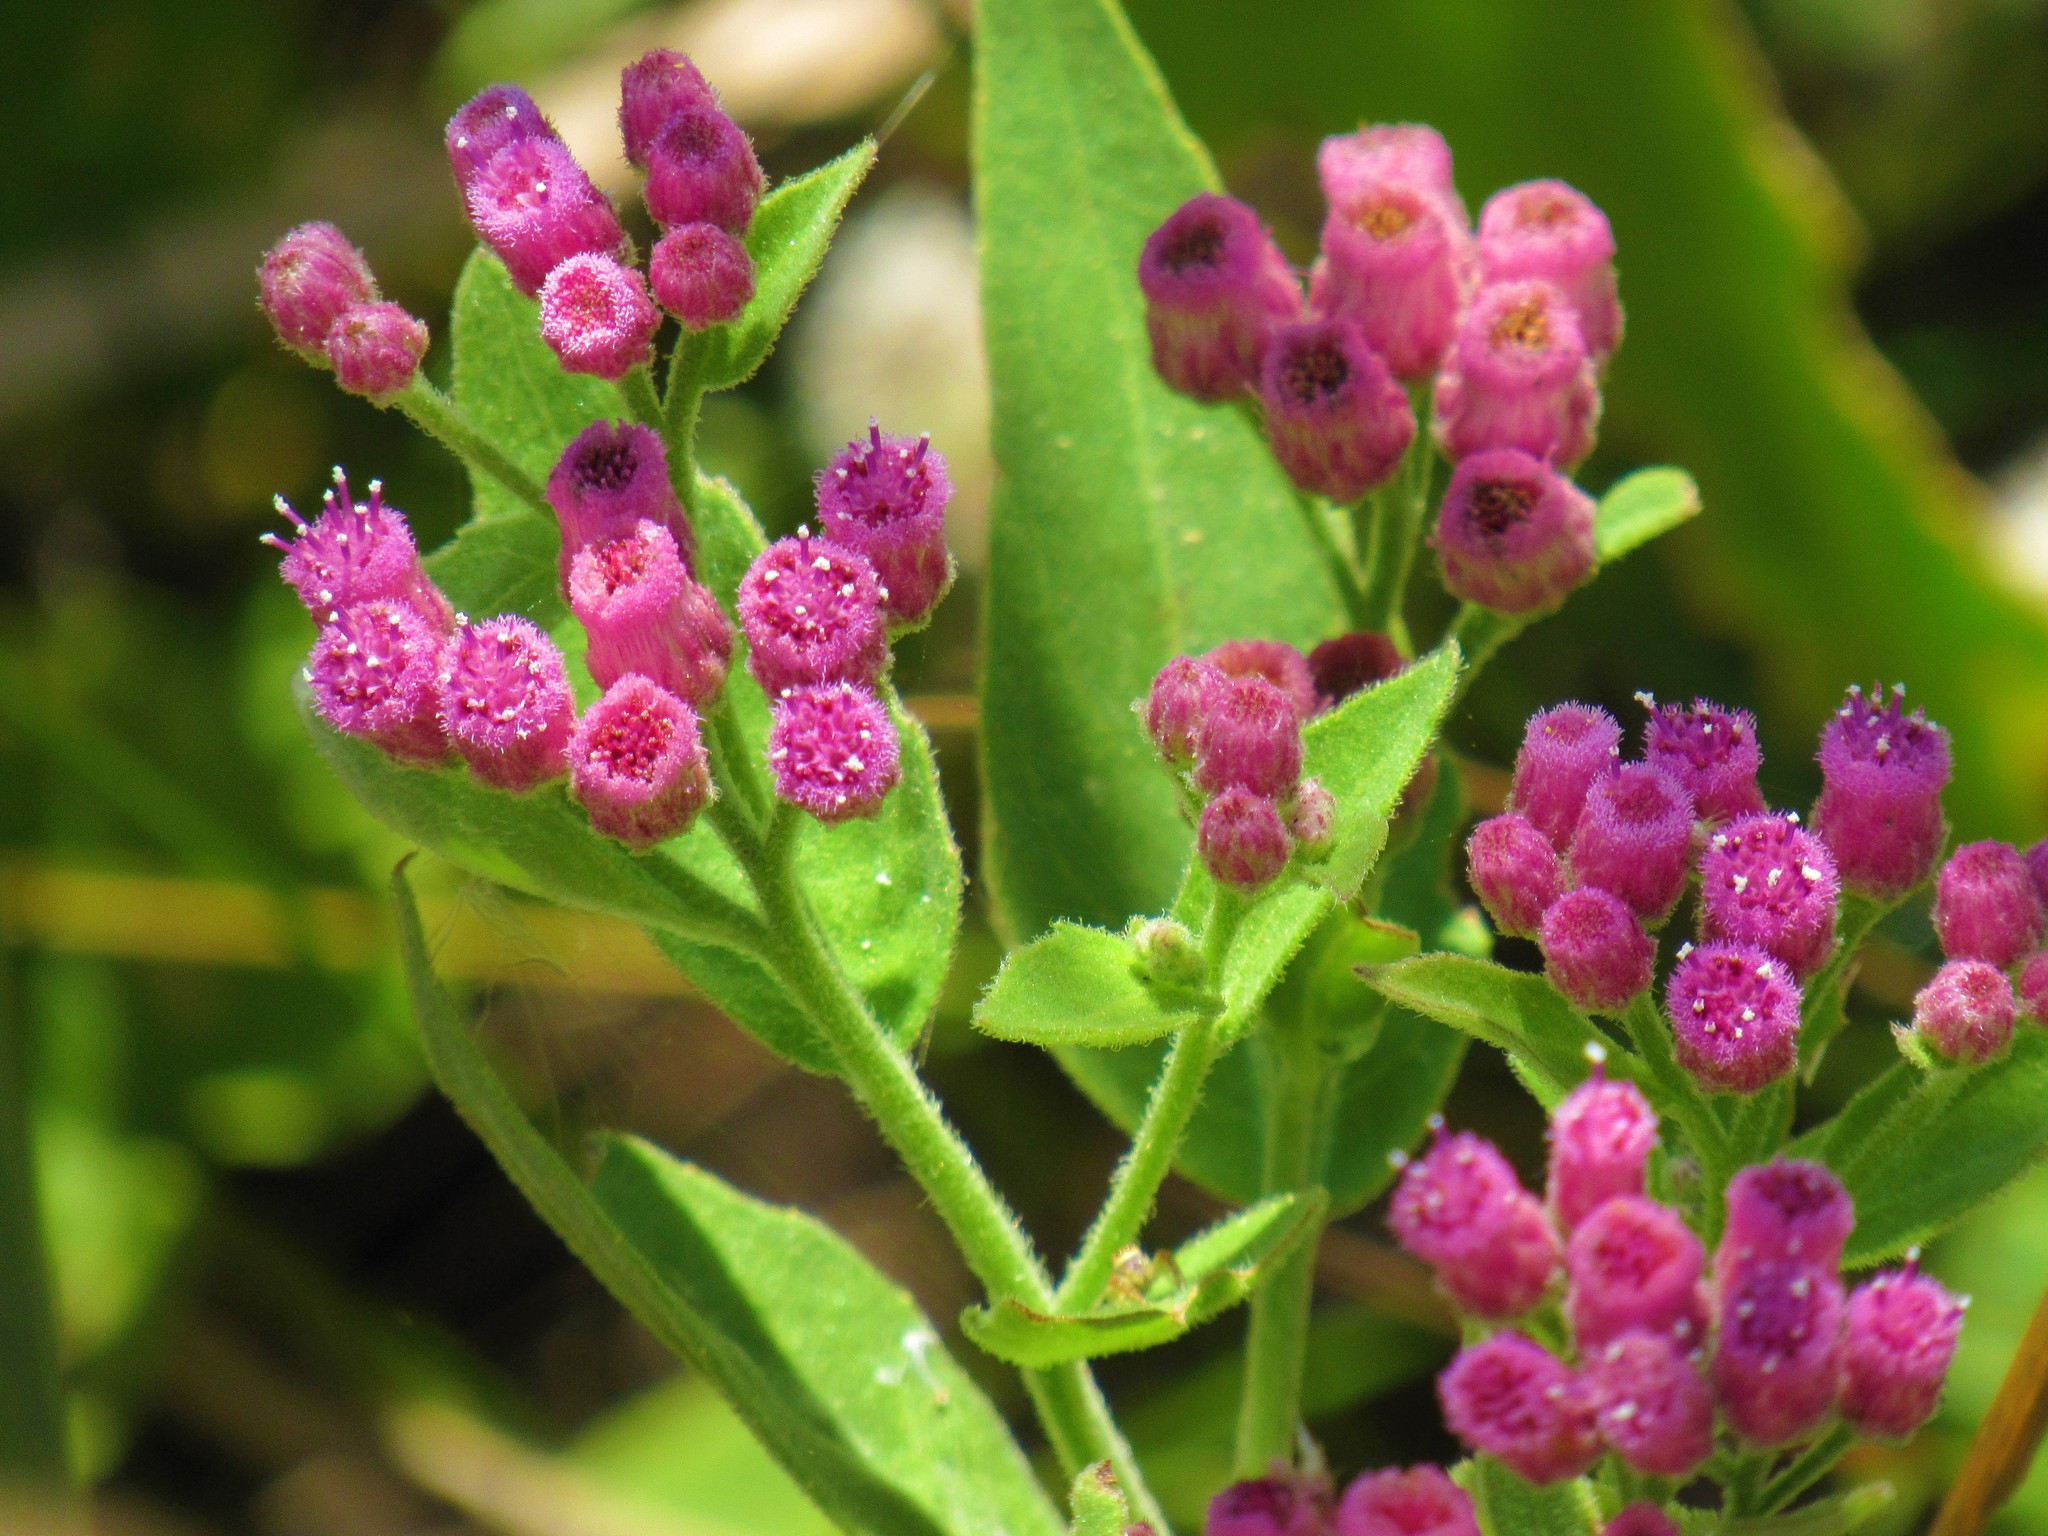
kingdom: Plantae
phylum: Tracheophyta
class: Magnoliopsida
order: Asterales
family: Asteraceae
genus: Pluchea
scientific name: Pluchea odorata
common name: Saltmarsh fleabane
